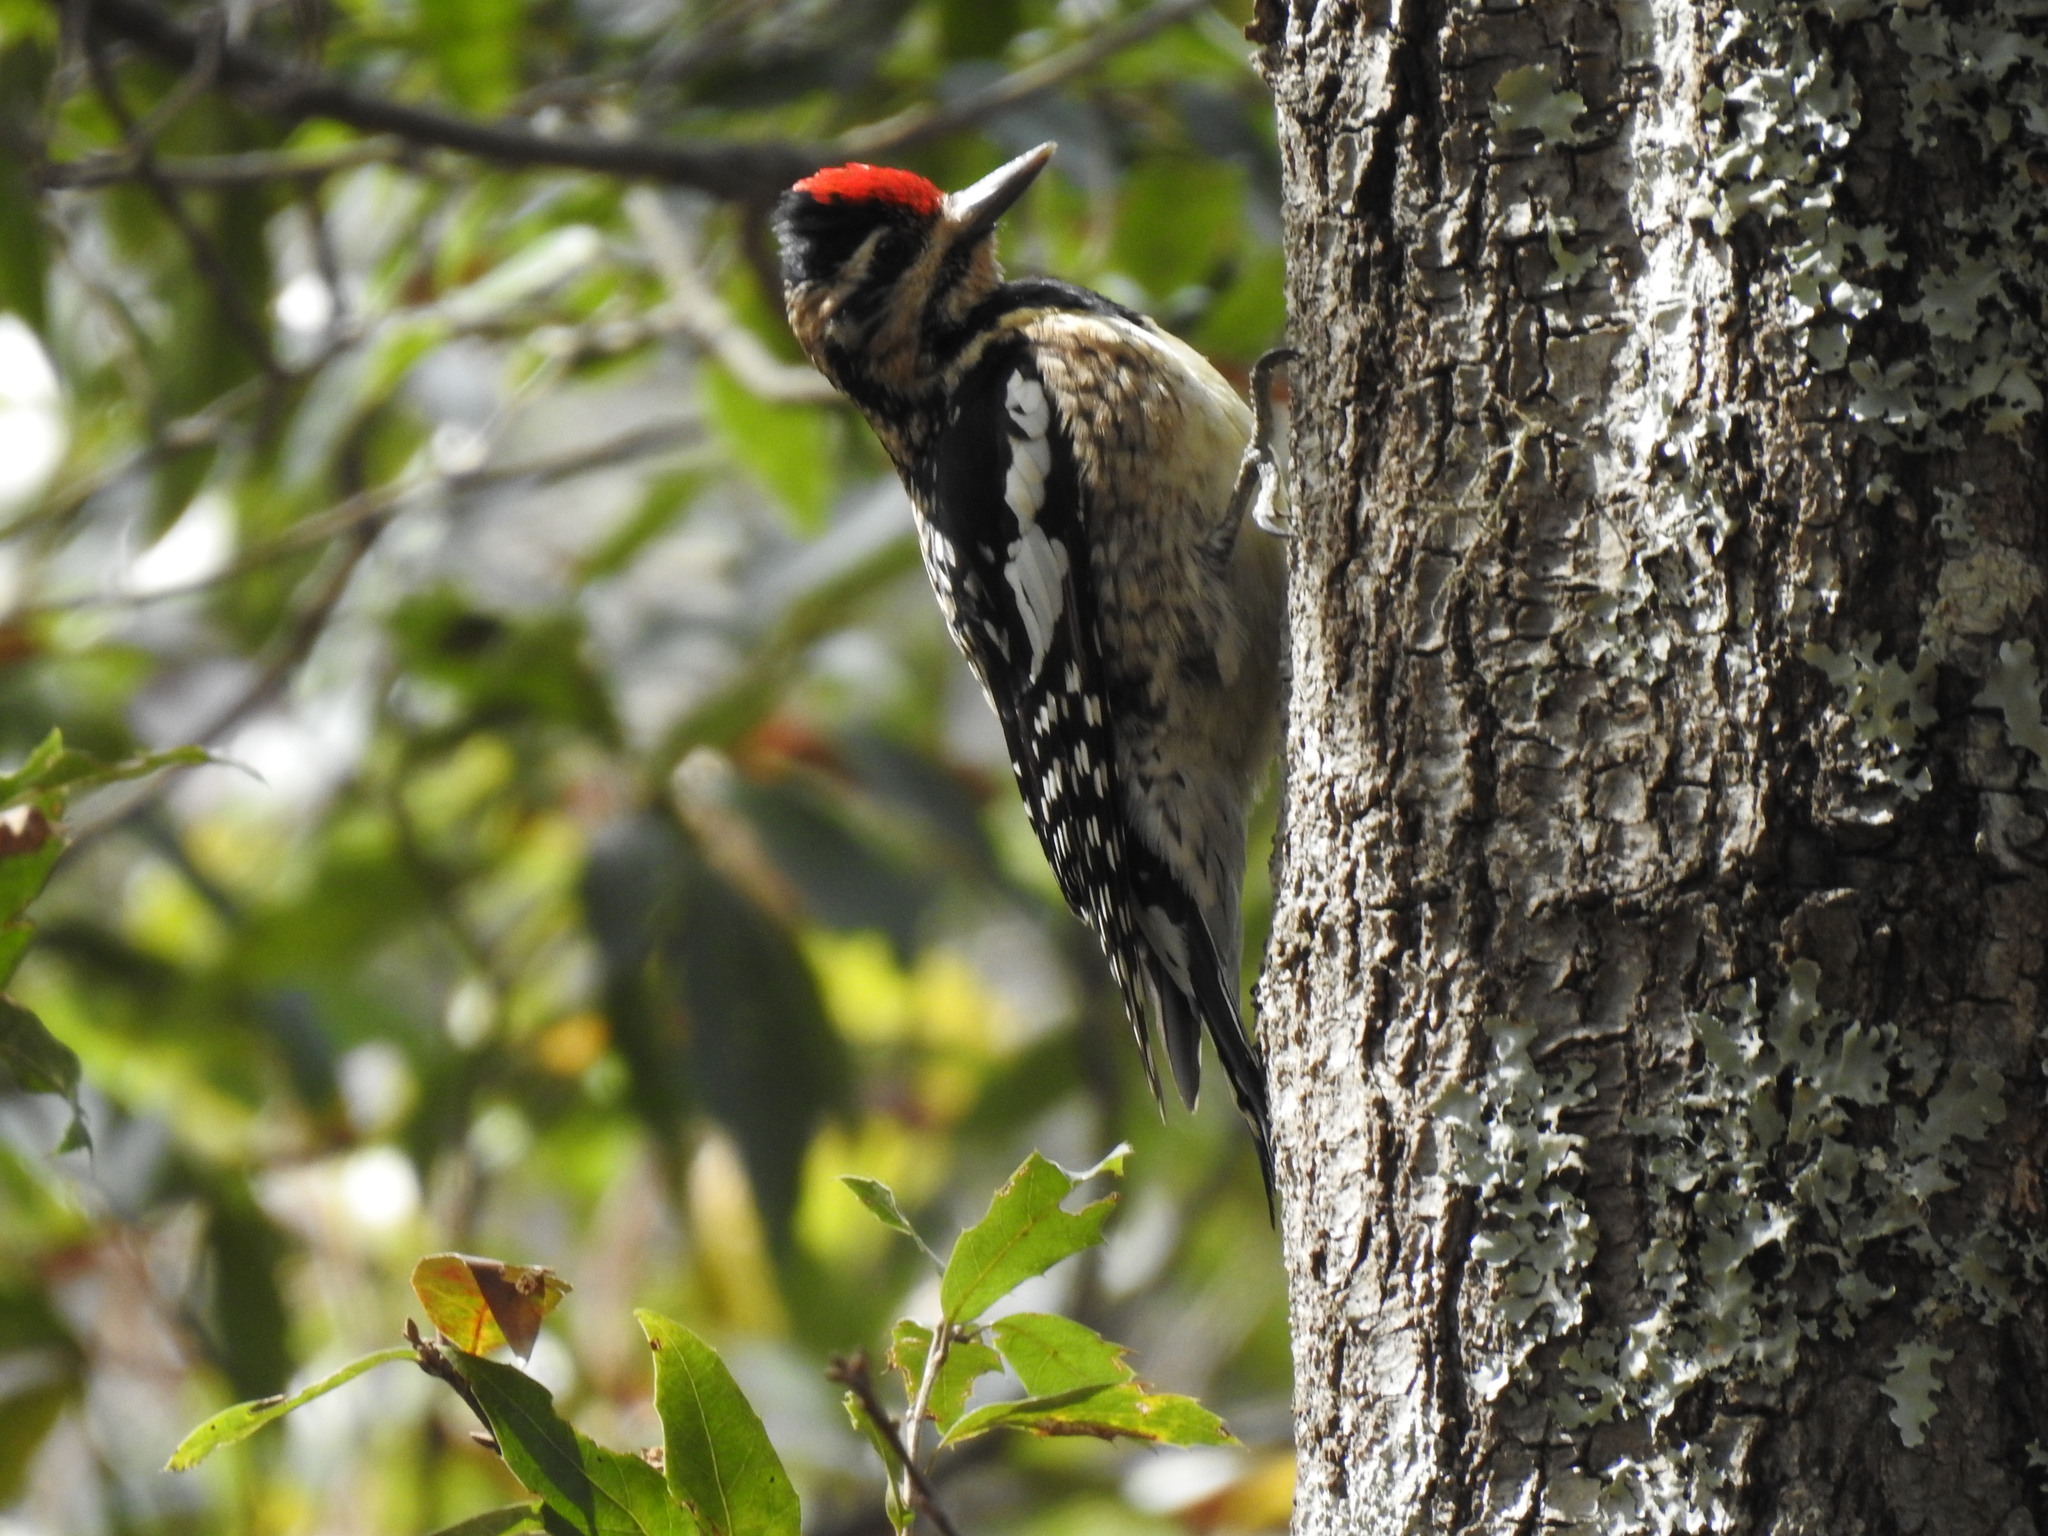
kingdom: Animalia
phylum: Chordata
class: Aves
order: Piciformes
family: Picidae
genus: Sphyrapicus
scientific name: Sphyrapicus varius
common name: Yellow-bellied sapsucker
